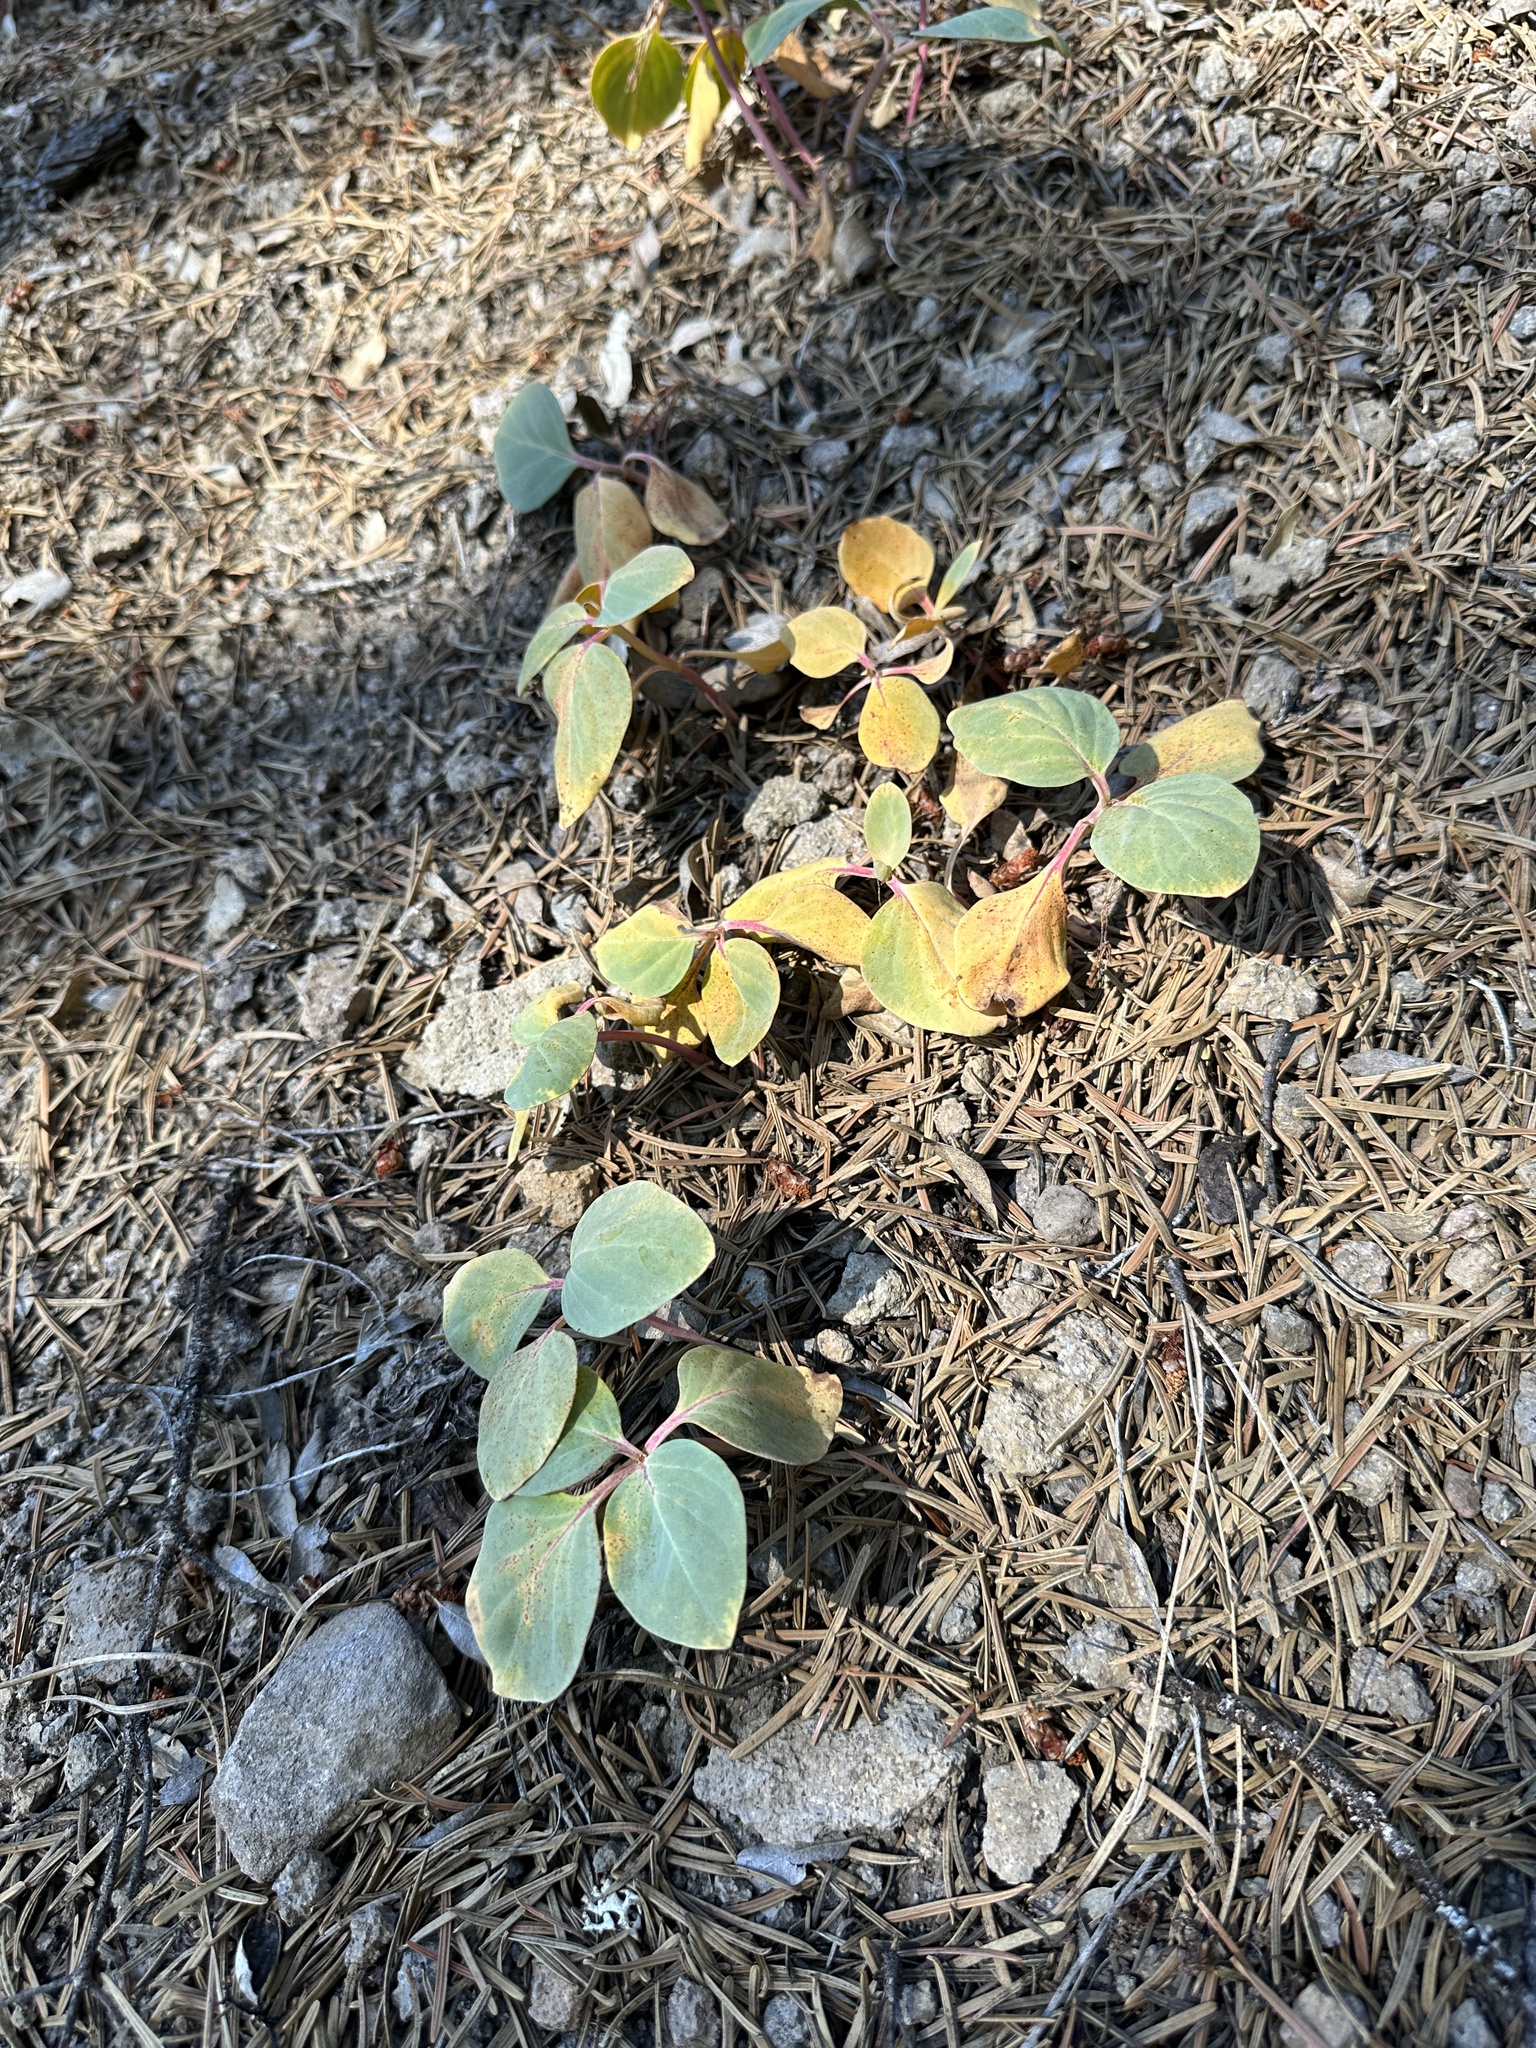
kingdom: Plantae
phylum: Tracheophyta
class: Magnoliopsida
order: Gentianales
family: Apocynaceae
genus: Cycladenia
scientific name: Cycladenia humilis
